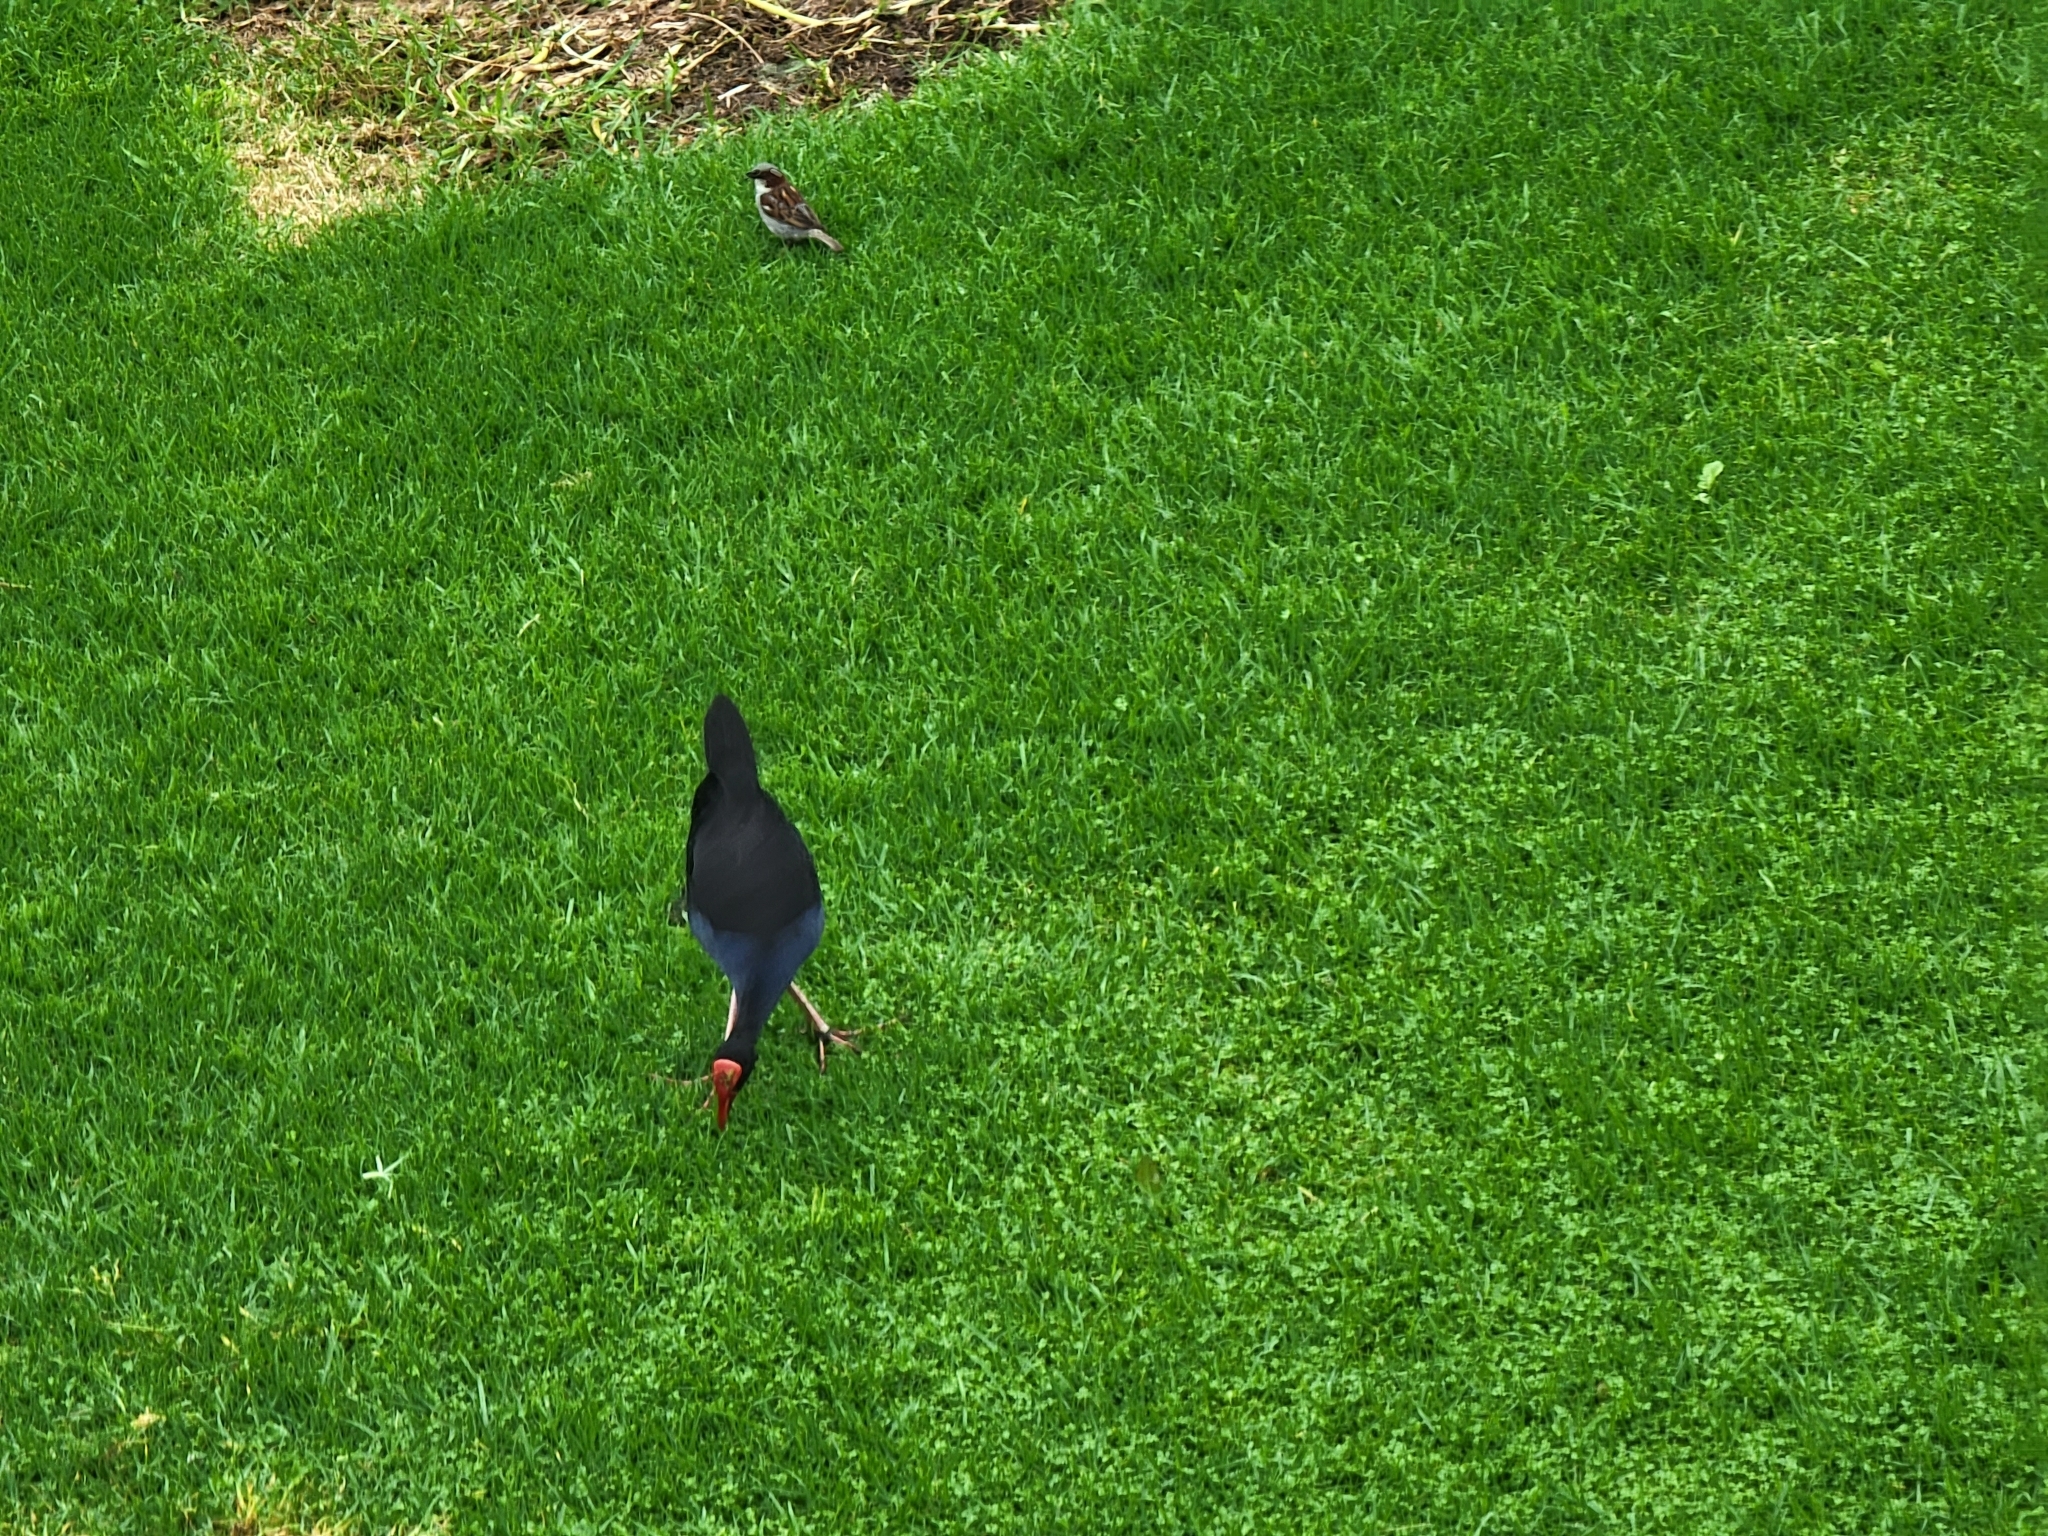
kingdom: Animalia
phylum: Chordata
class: Aves
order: Gruiformes
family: Rallidae
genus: Porphyrio
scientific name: Porphyrio melanotus
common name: Australasian swamphen
